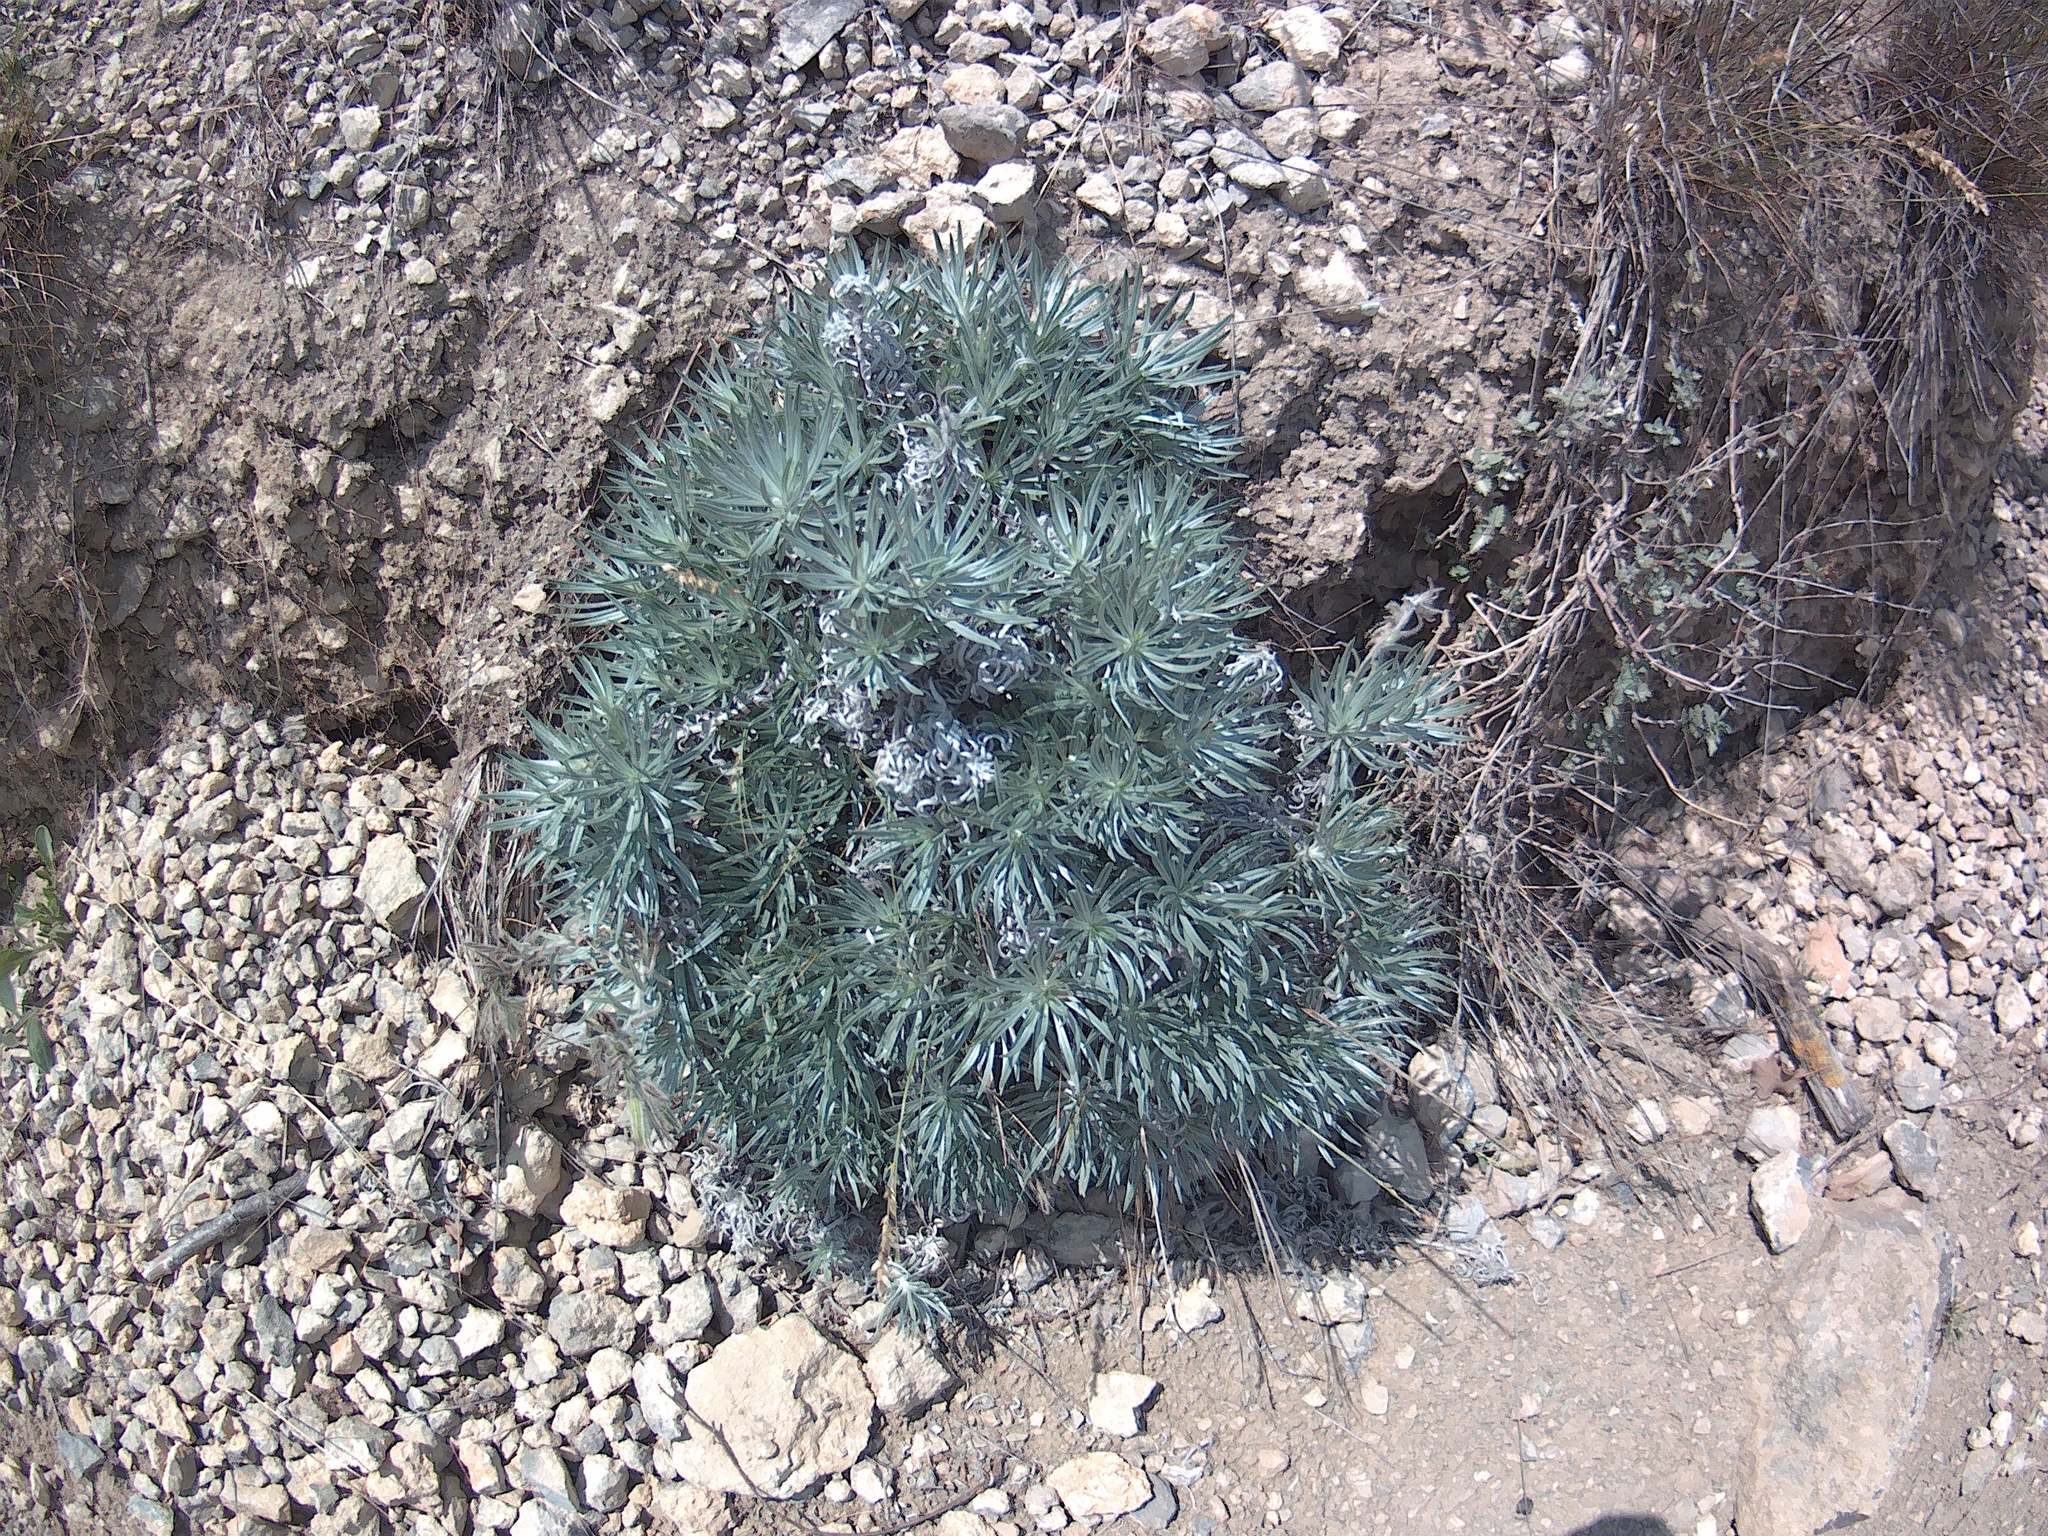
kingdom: Plantae
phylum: Tracheophyta
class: Magnoliopsida
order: Boraginales
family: Boraginaceae
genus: Onosma
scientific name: Onosma polyphylla
